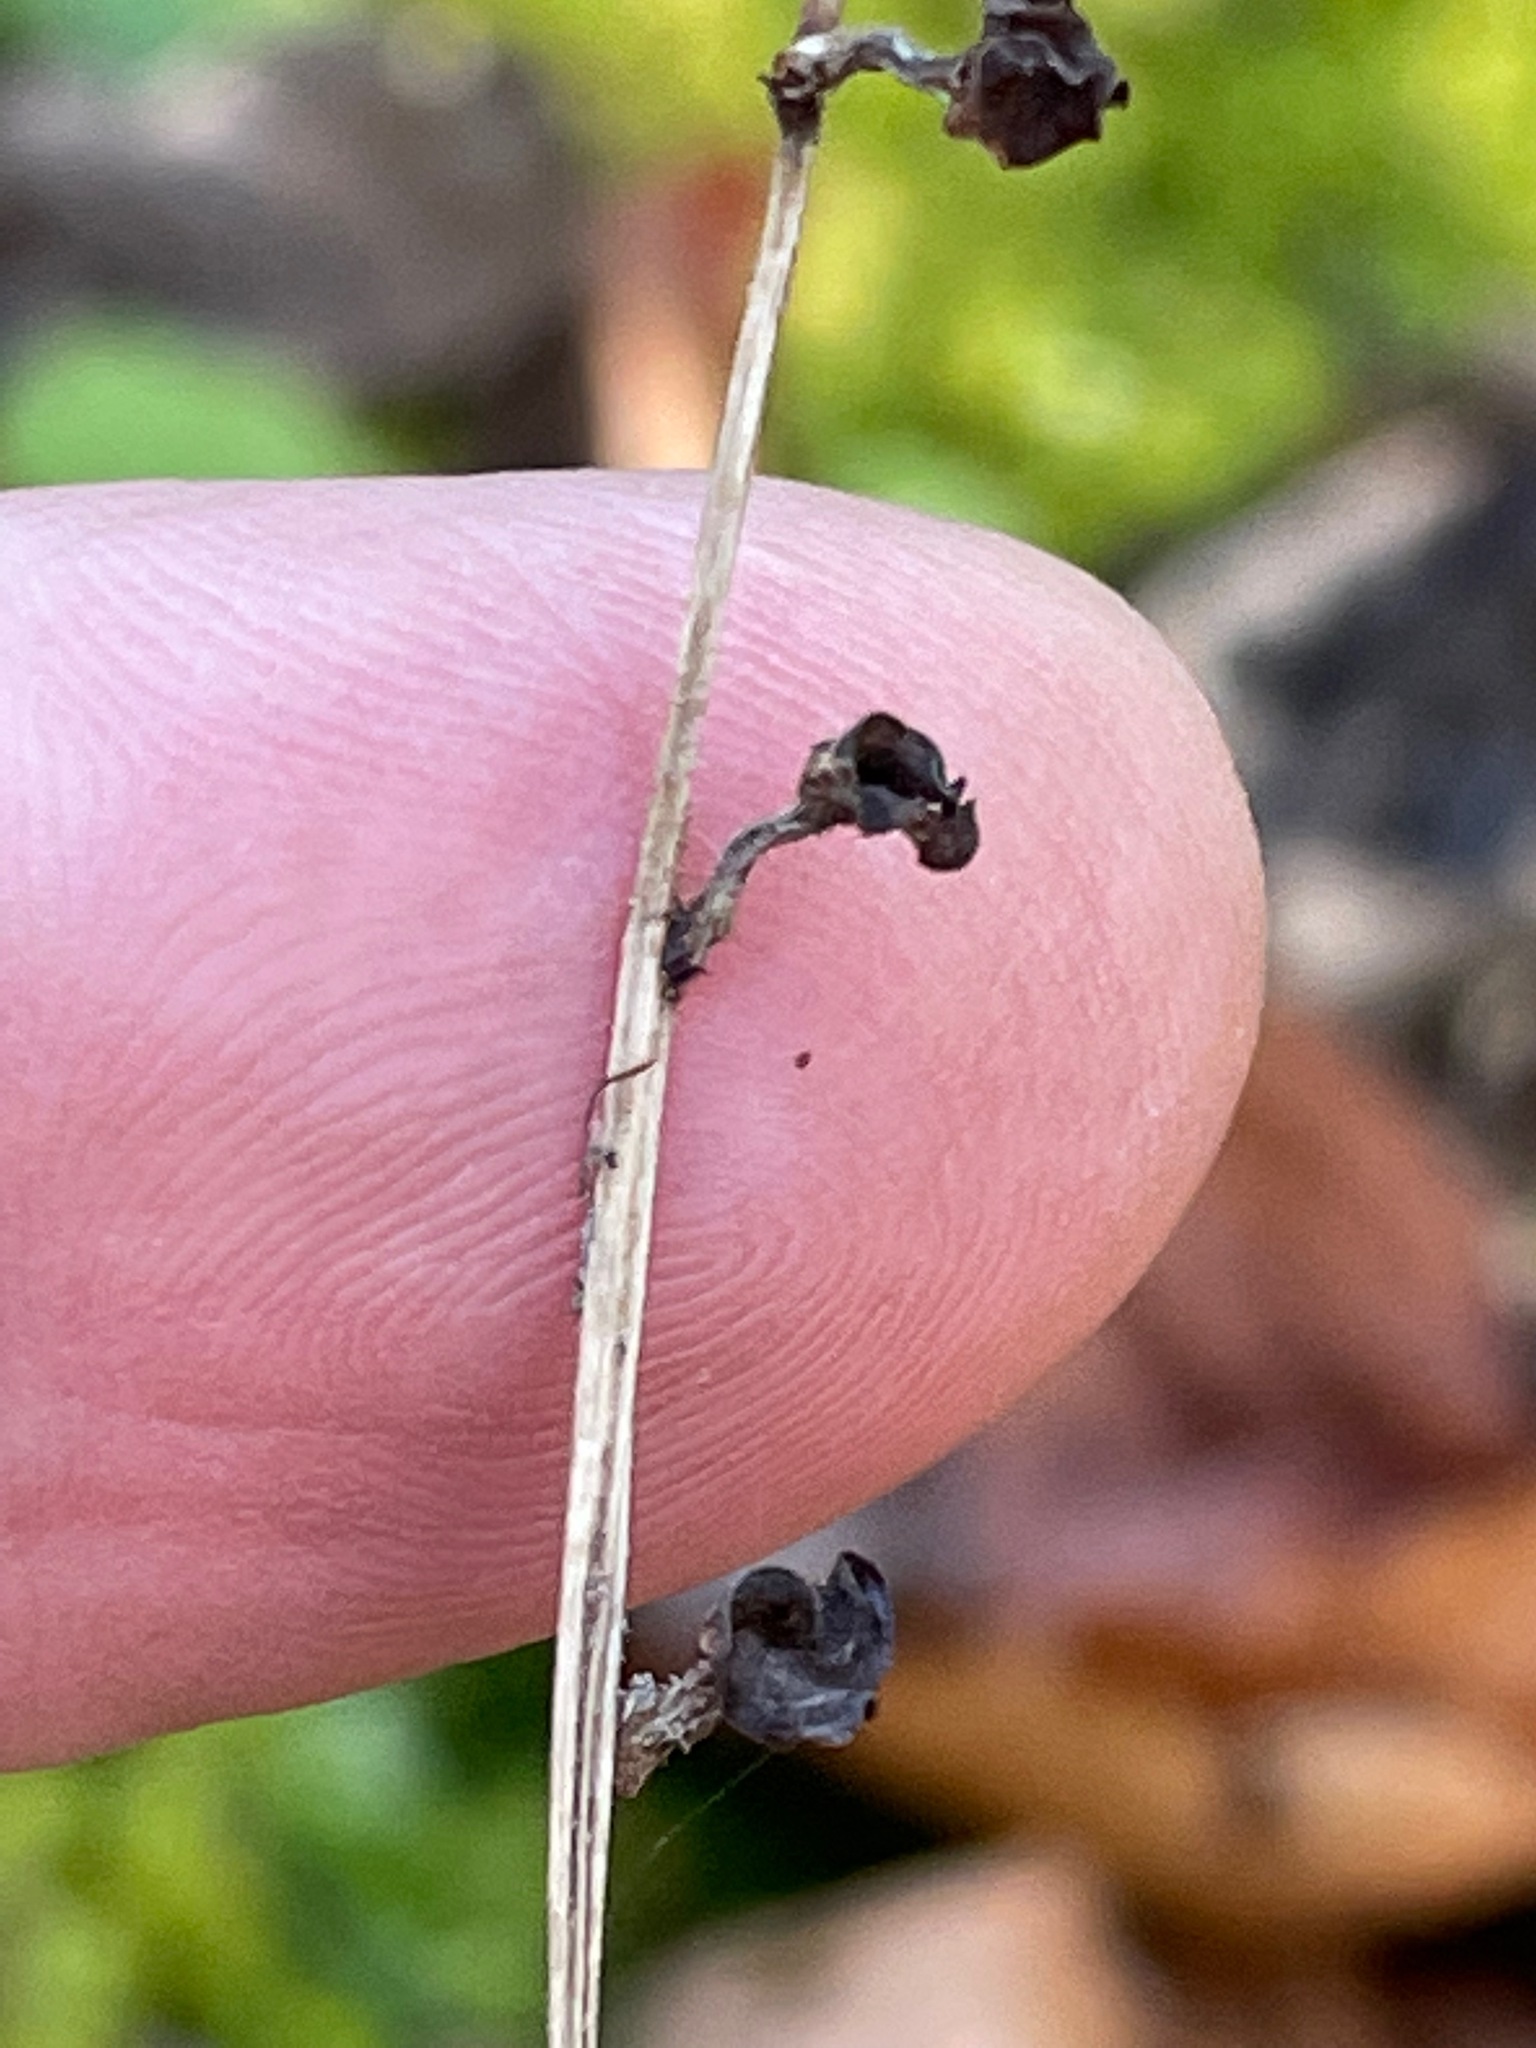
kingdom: Plantae
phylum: Tracheophyta
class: Magnoliopsida
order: Saxifragales
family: Saxifragaceae
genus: Mitella
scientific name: Mitella diphylla
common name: Coolwort
